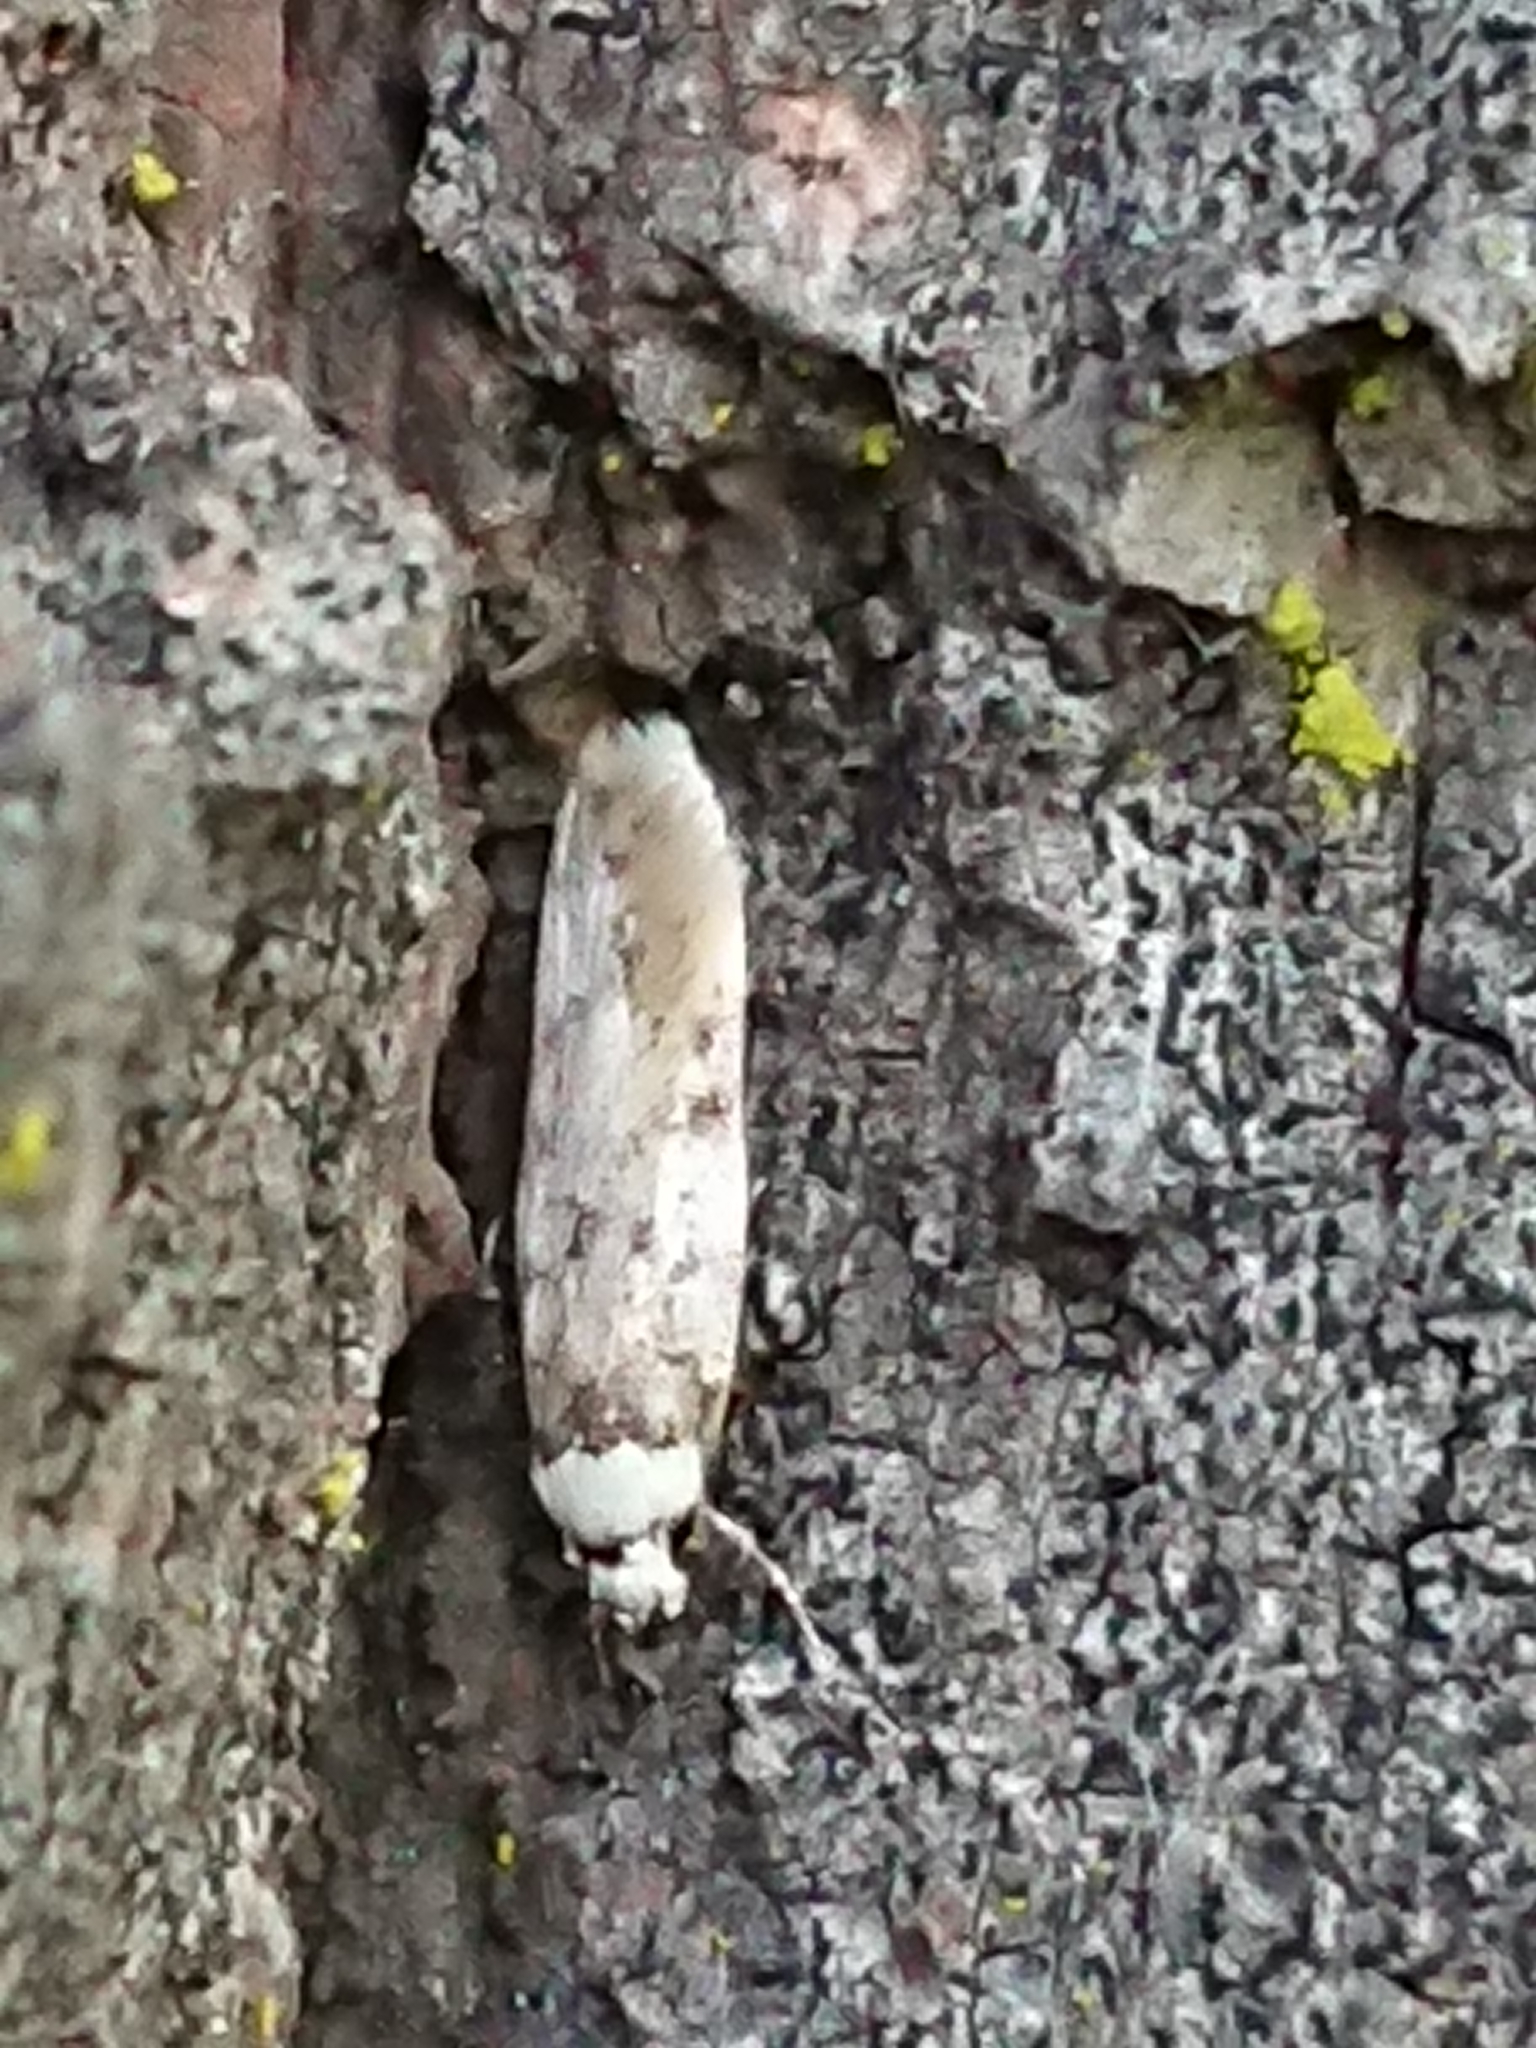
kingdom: Animalia
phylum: Arthropoda
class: Insecta
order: Lepidoptera
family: Oecophoridae
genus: Endrosis
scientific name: Endrosis sarcitrella
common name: White-shouldered house moth
